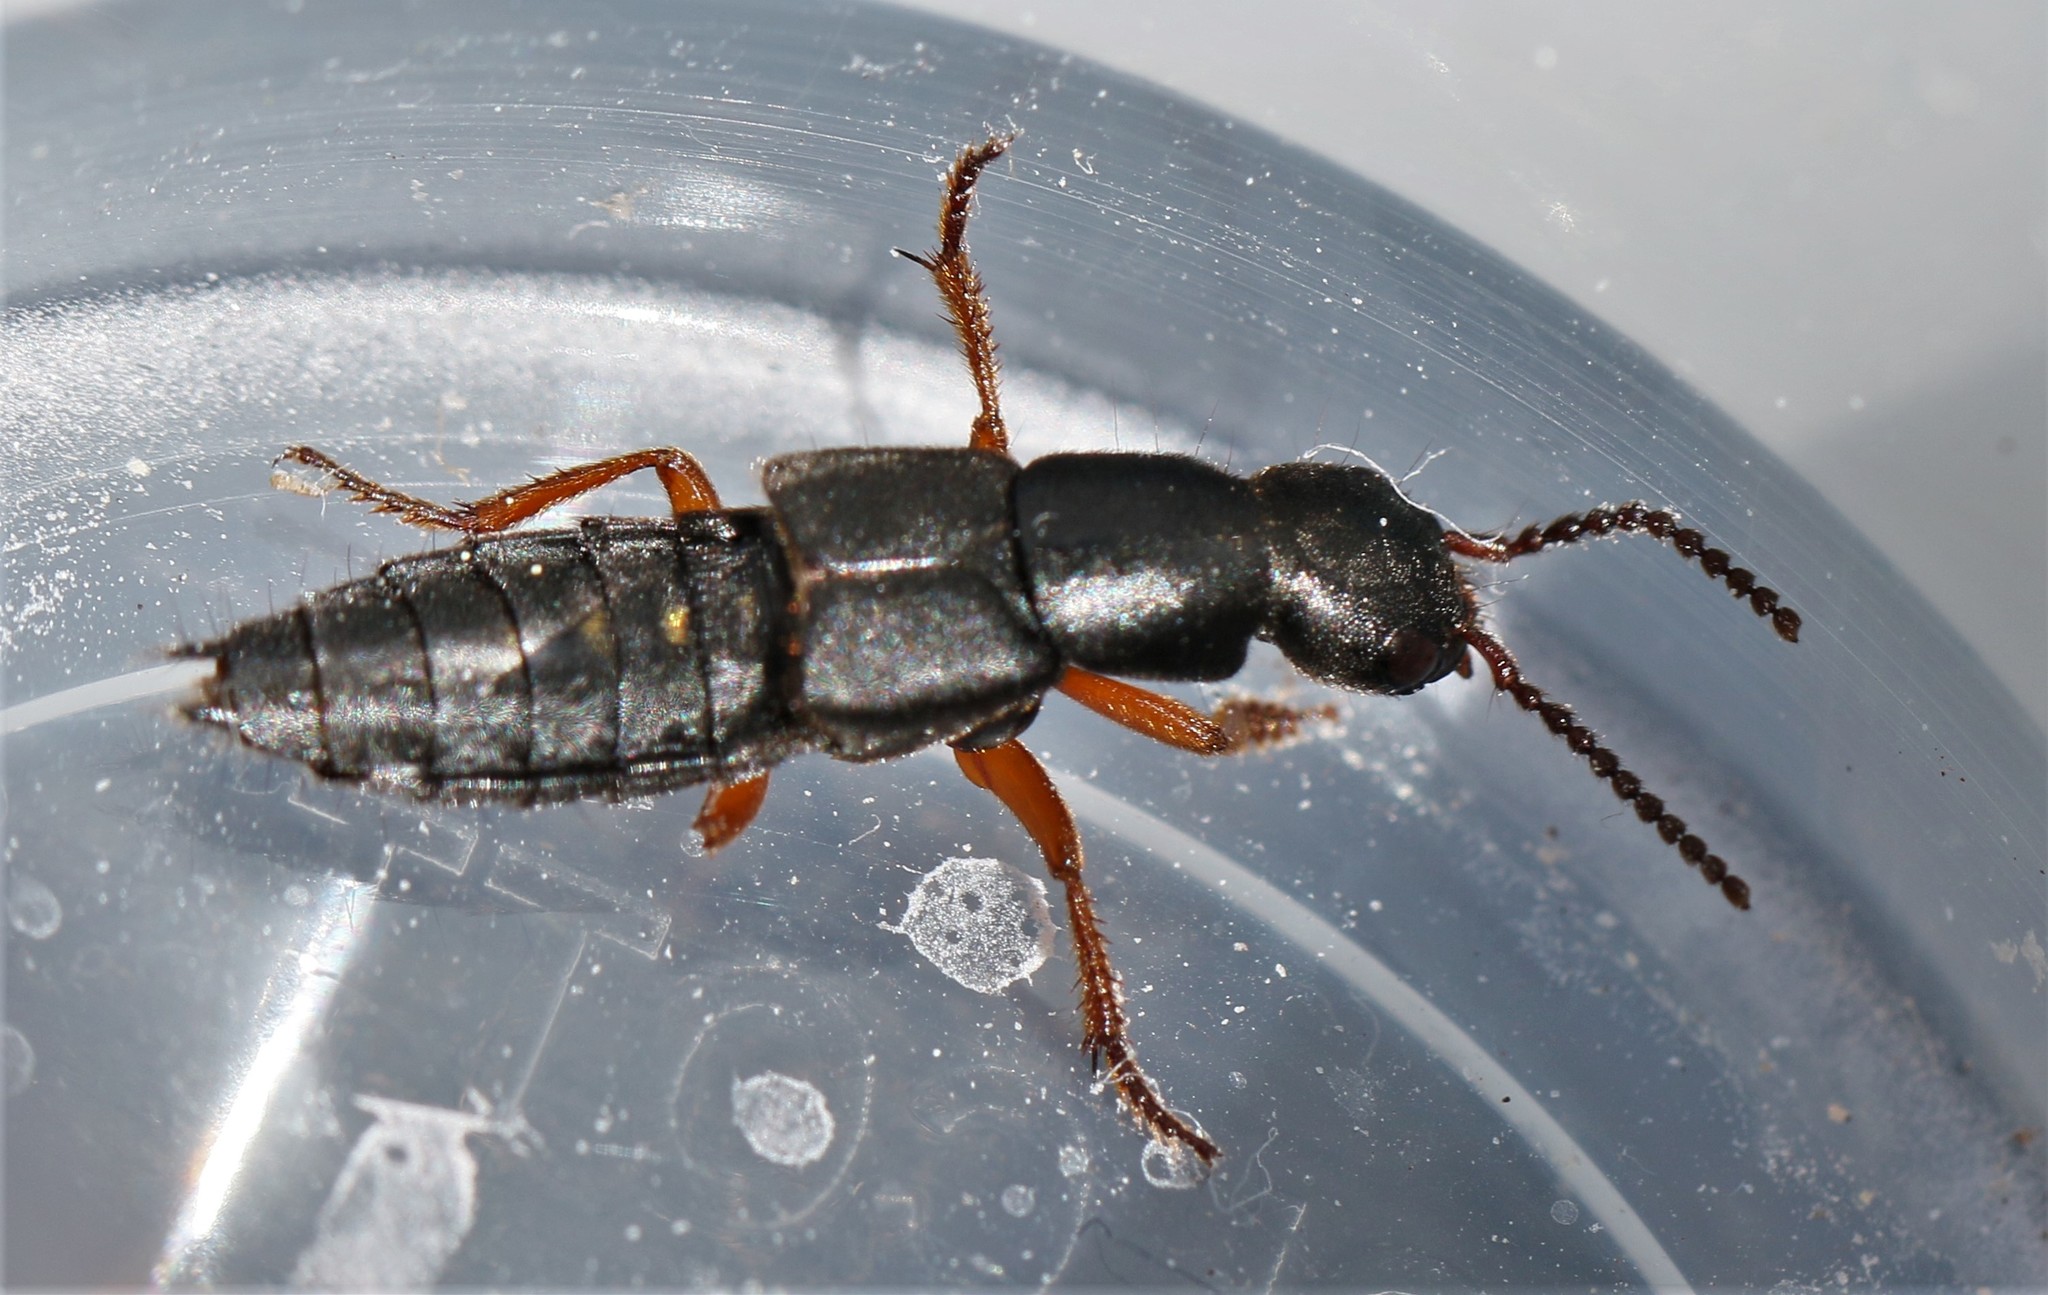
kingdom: Animalia
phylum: Arthropoda
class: Insecta
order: Coleoptera
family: Staphylinidae
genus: Dinothenarus
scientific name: Dinothenarus badipes
